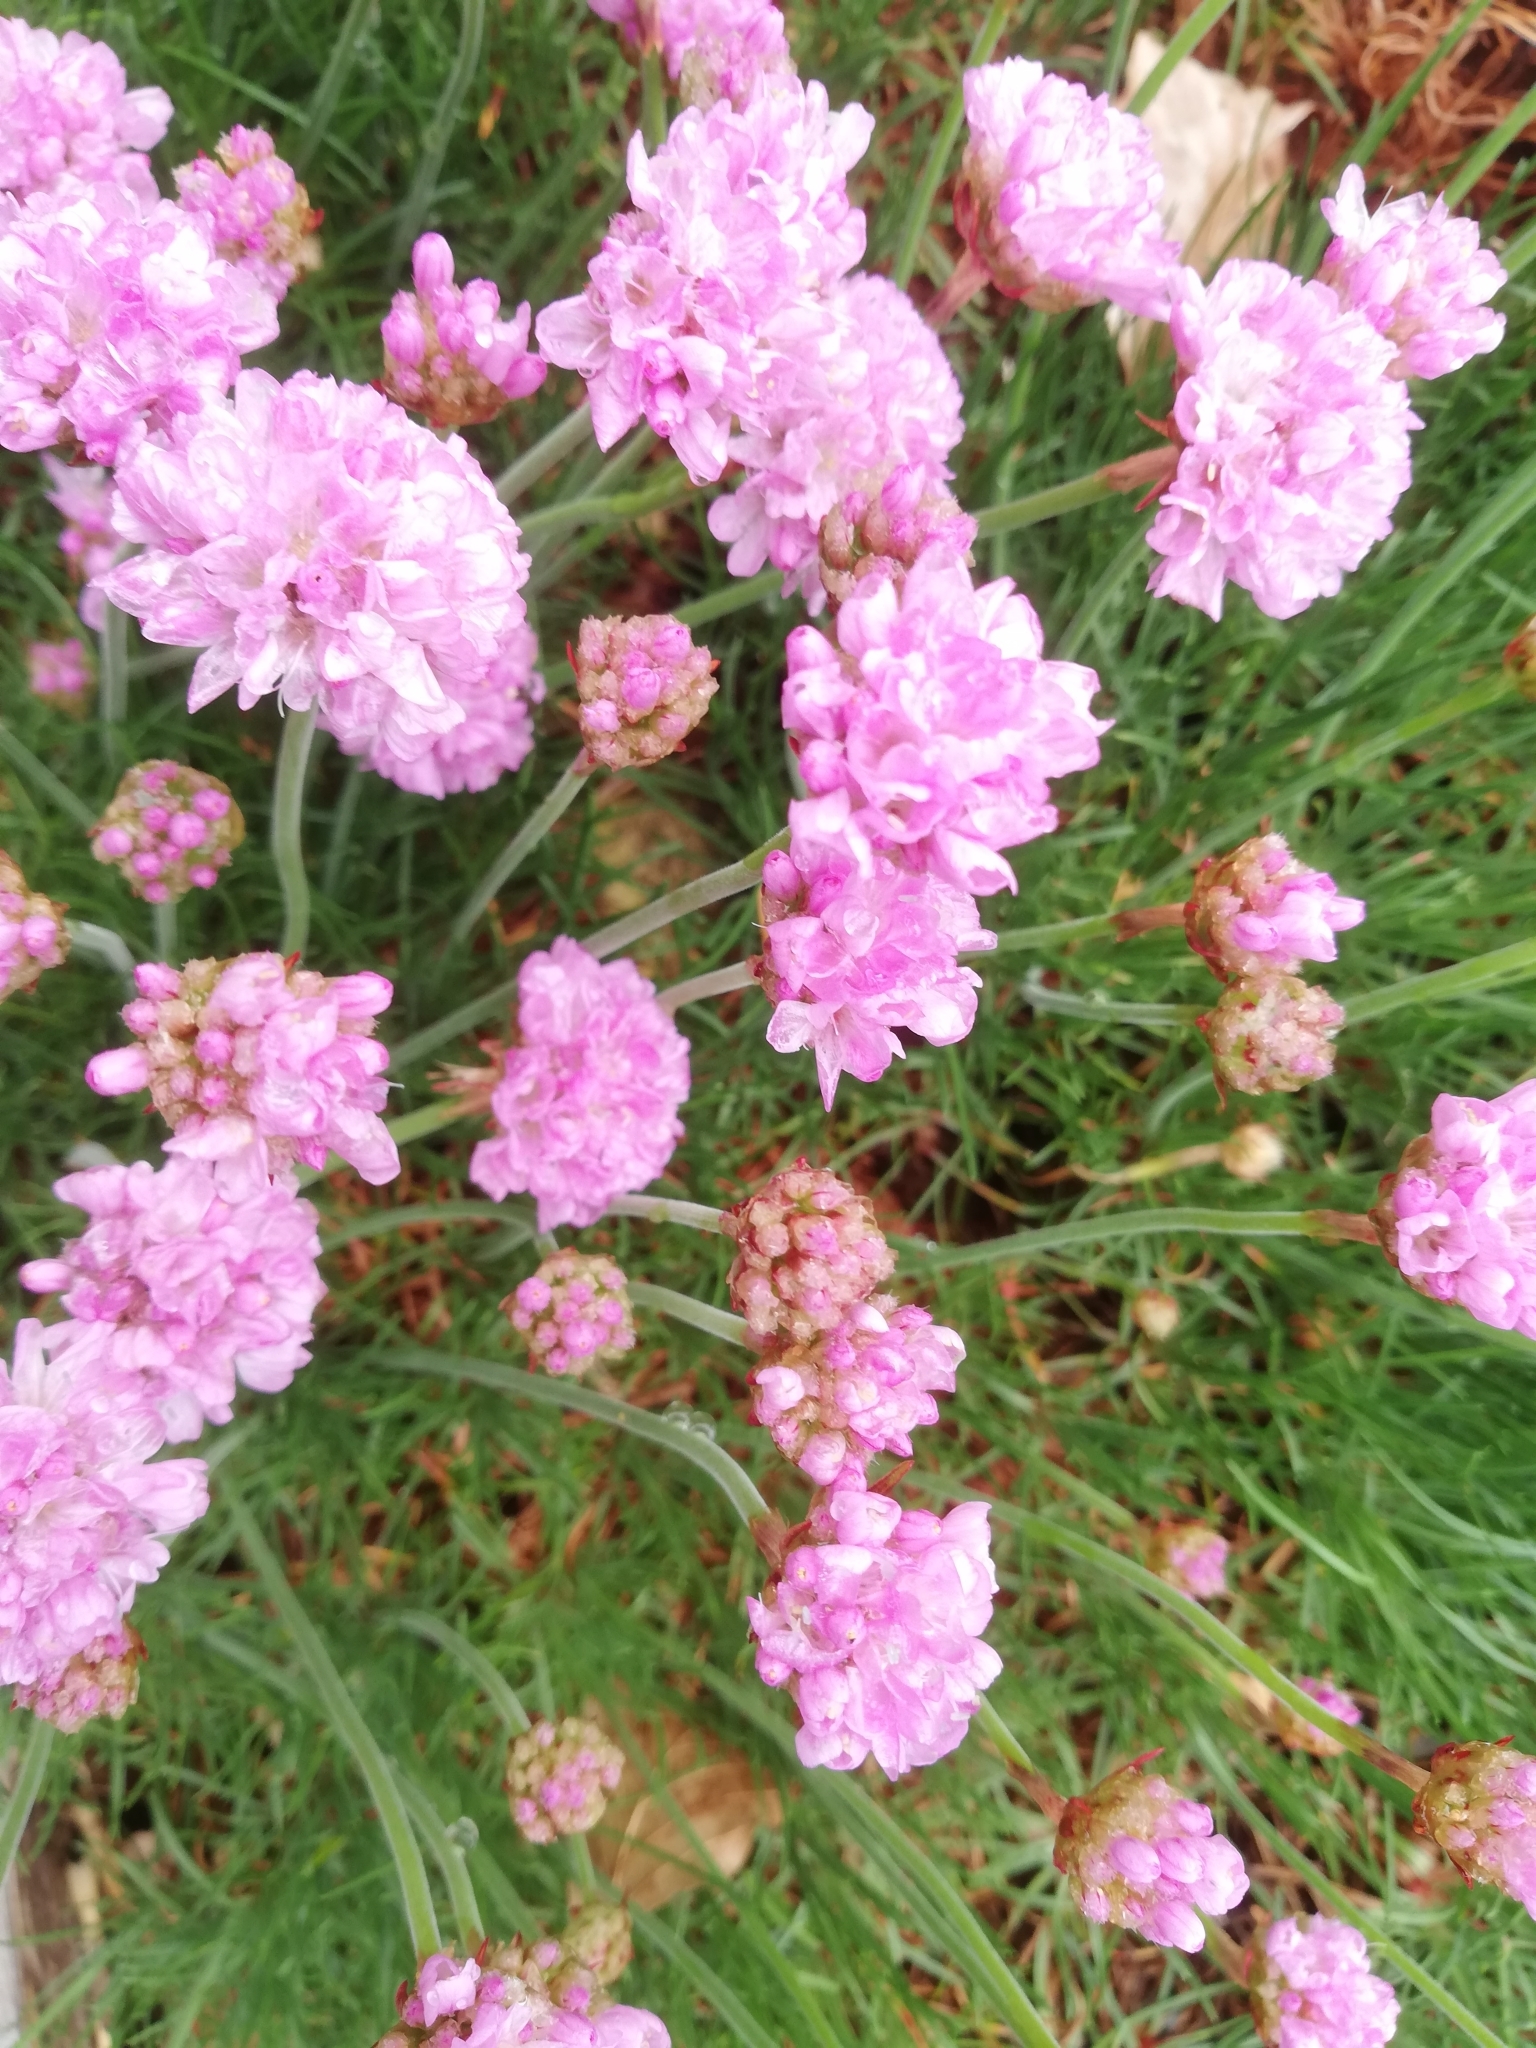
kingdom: Plantae
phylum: Tracheophyta
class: Magnoliopsida
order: Caryophyllales
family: Plumbaginaceae
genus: Armeria
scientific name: Armeria maritima
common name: Thrift
